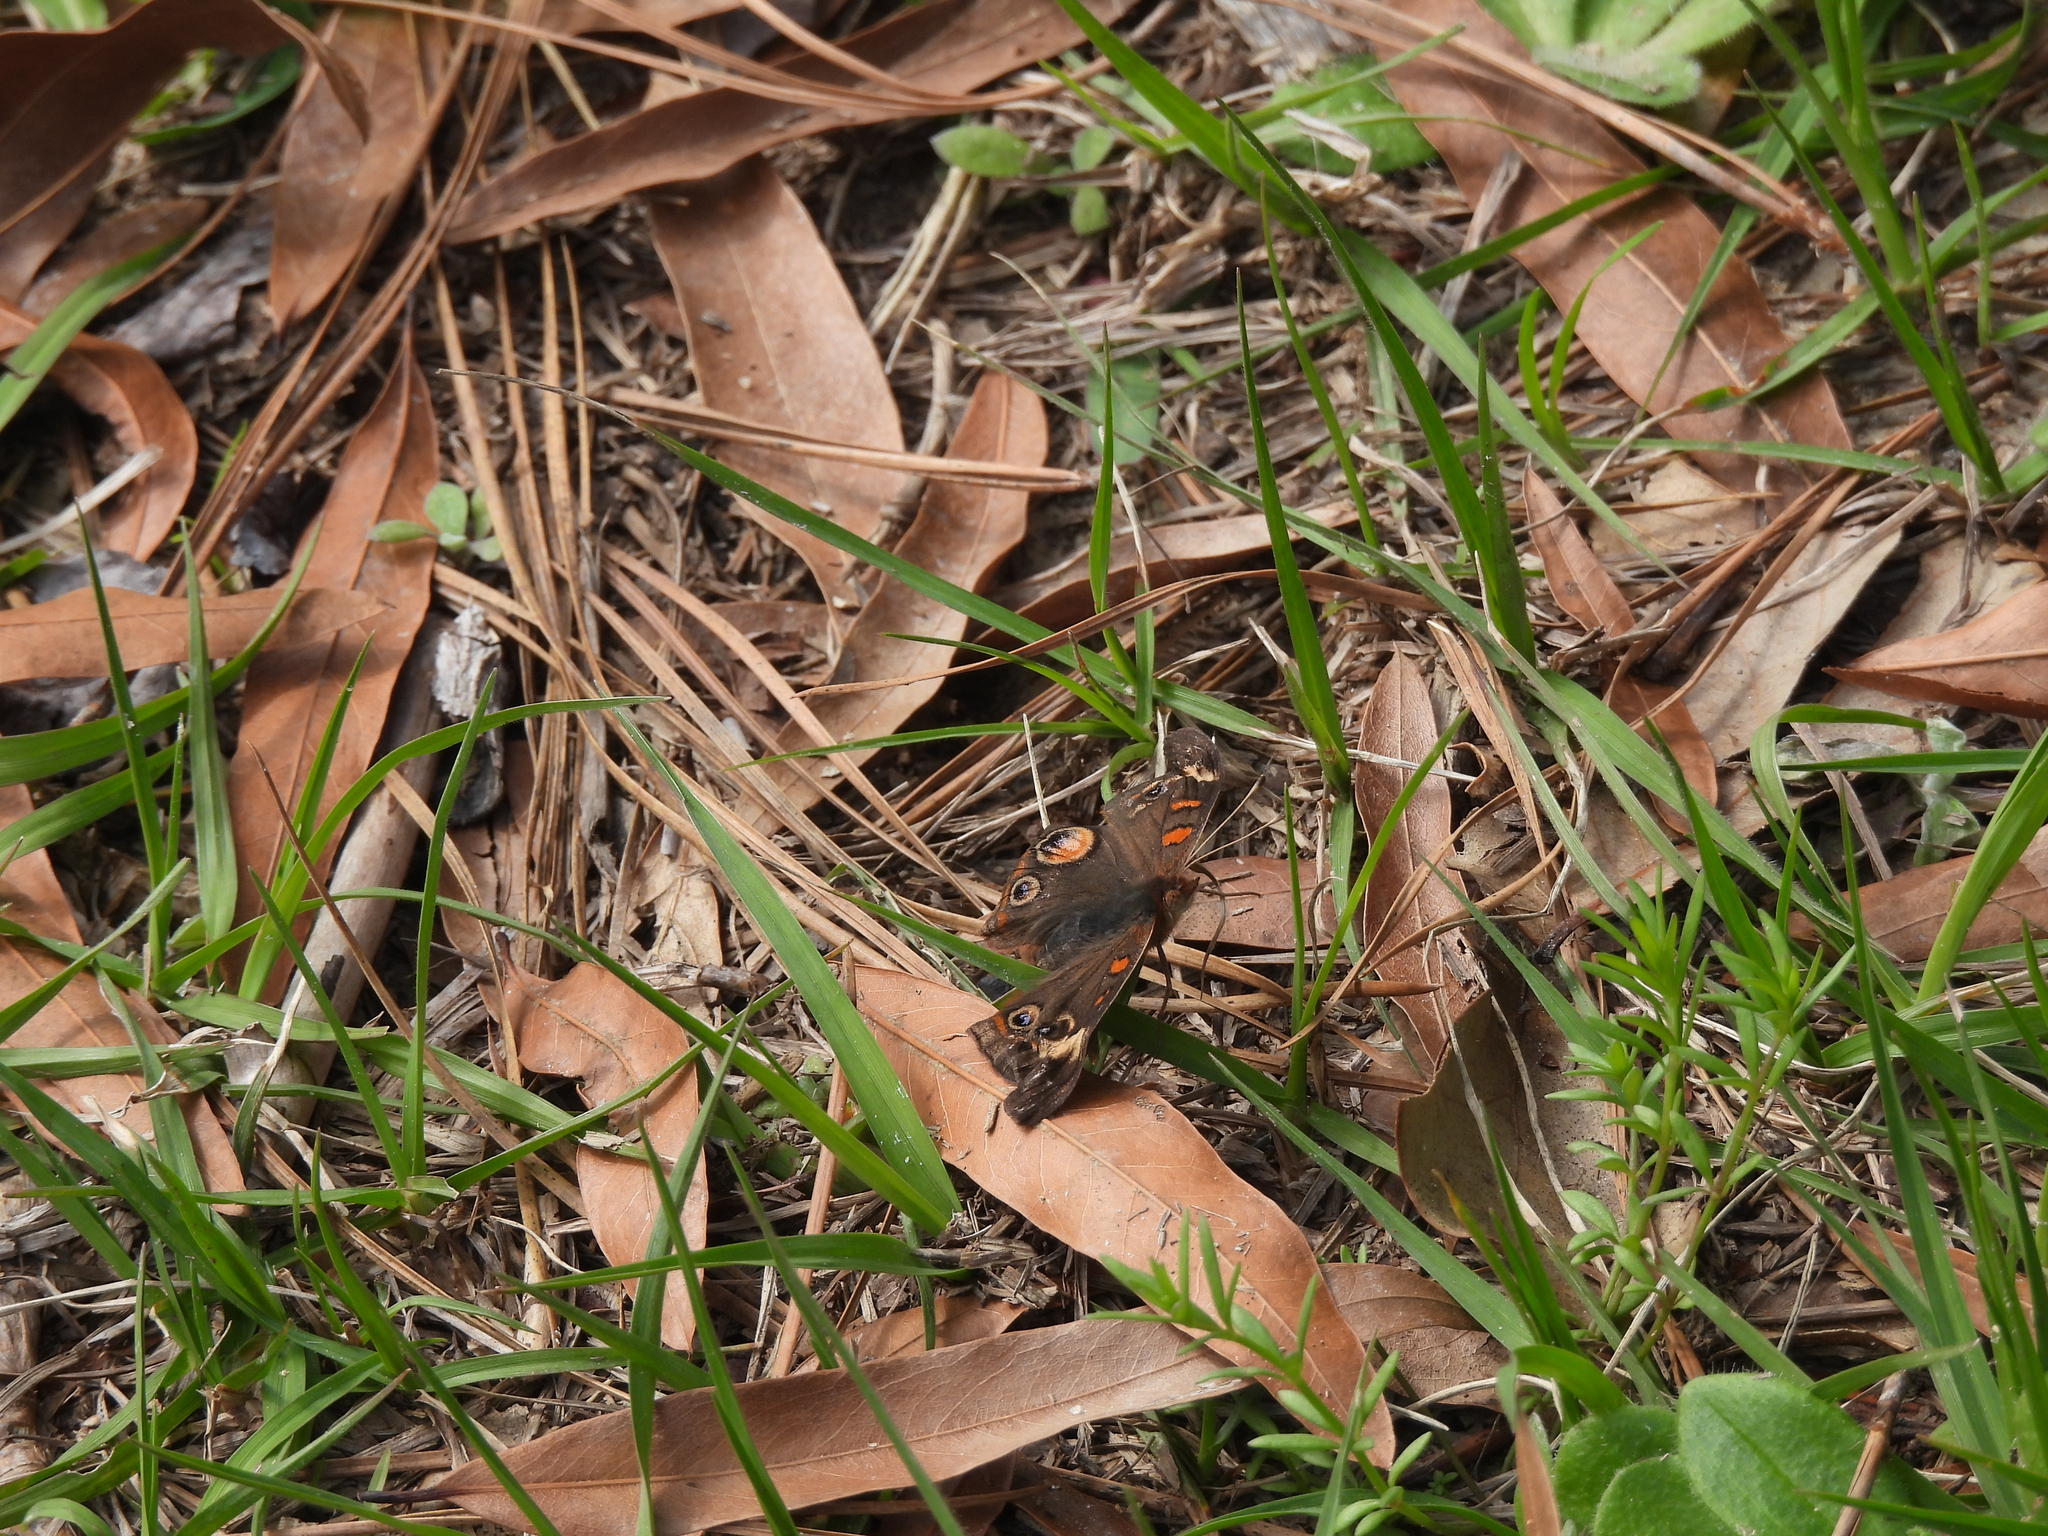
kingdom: Animalia
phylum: Arthropoda
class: Insecta
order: Lepidoptera
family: Nymphalidae
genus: Junonia
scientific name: Junonia coenia
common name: Common buckeye
